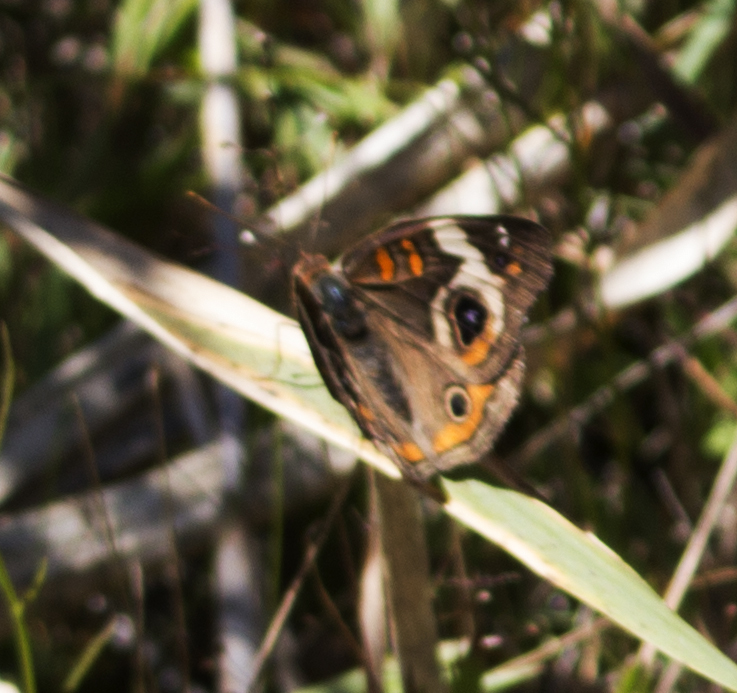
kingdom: Animalia
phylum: Arthropoda
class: Insecta
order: Lepidoptera
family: Nymphalidae
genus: Junonia
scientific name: Junonia coenia
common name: Common buckeye
